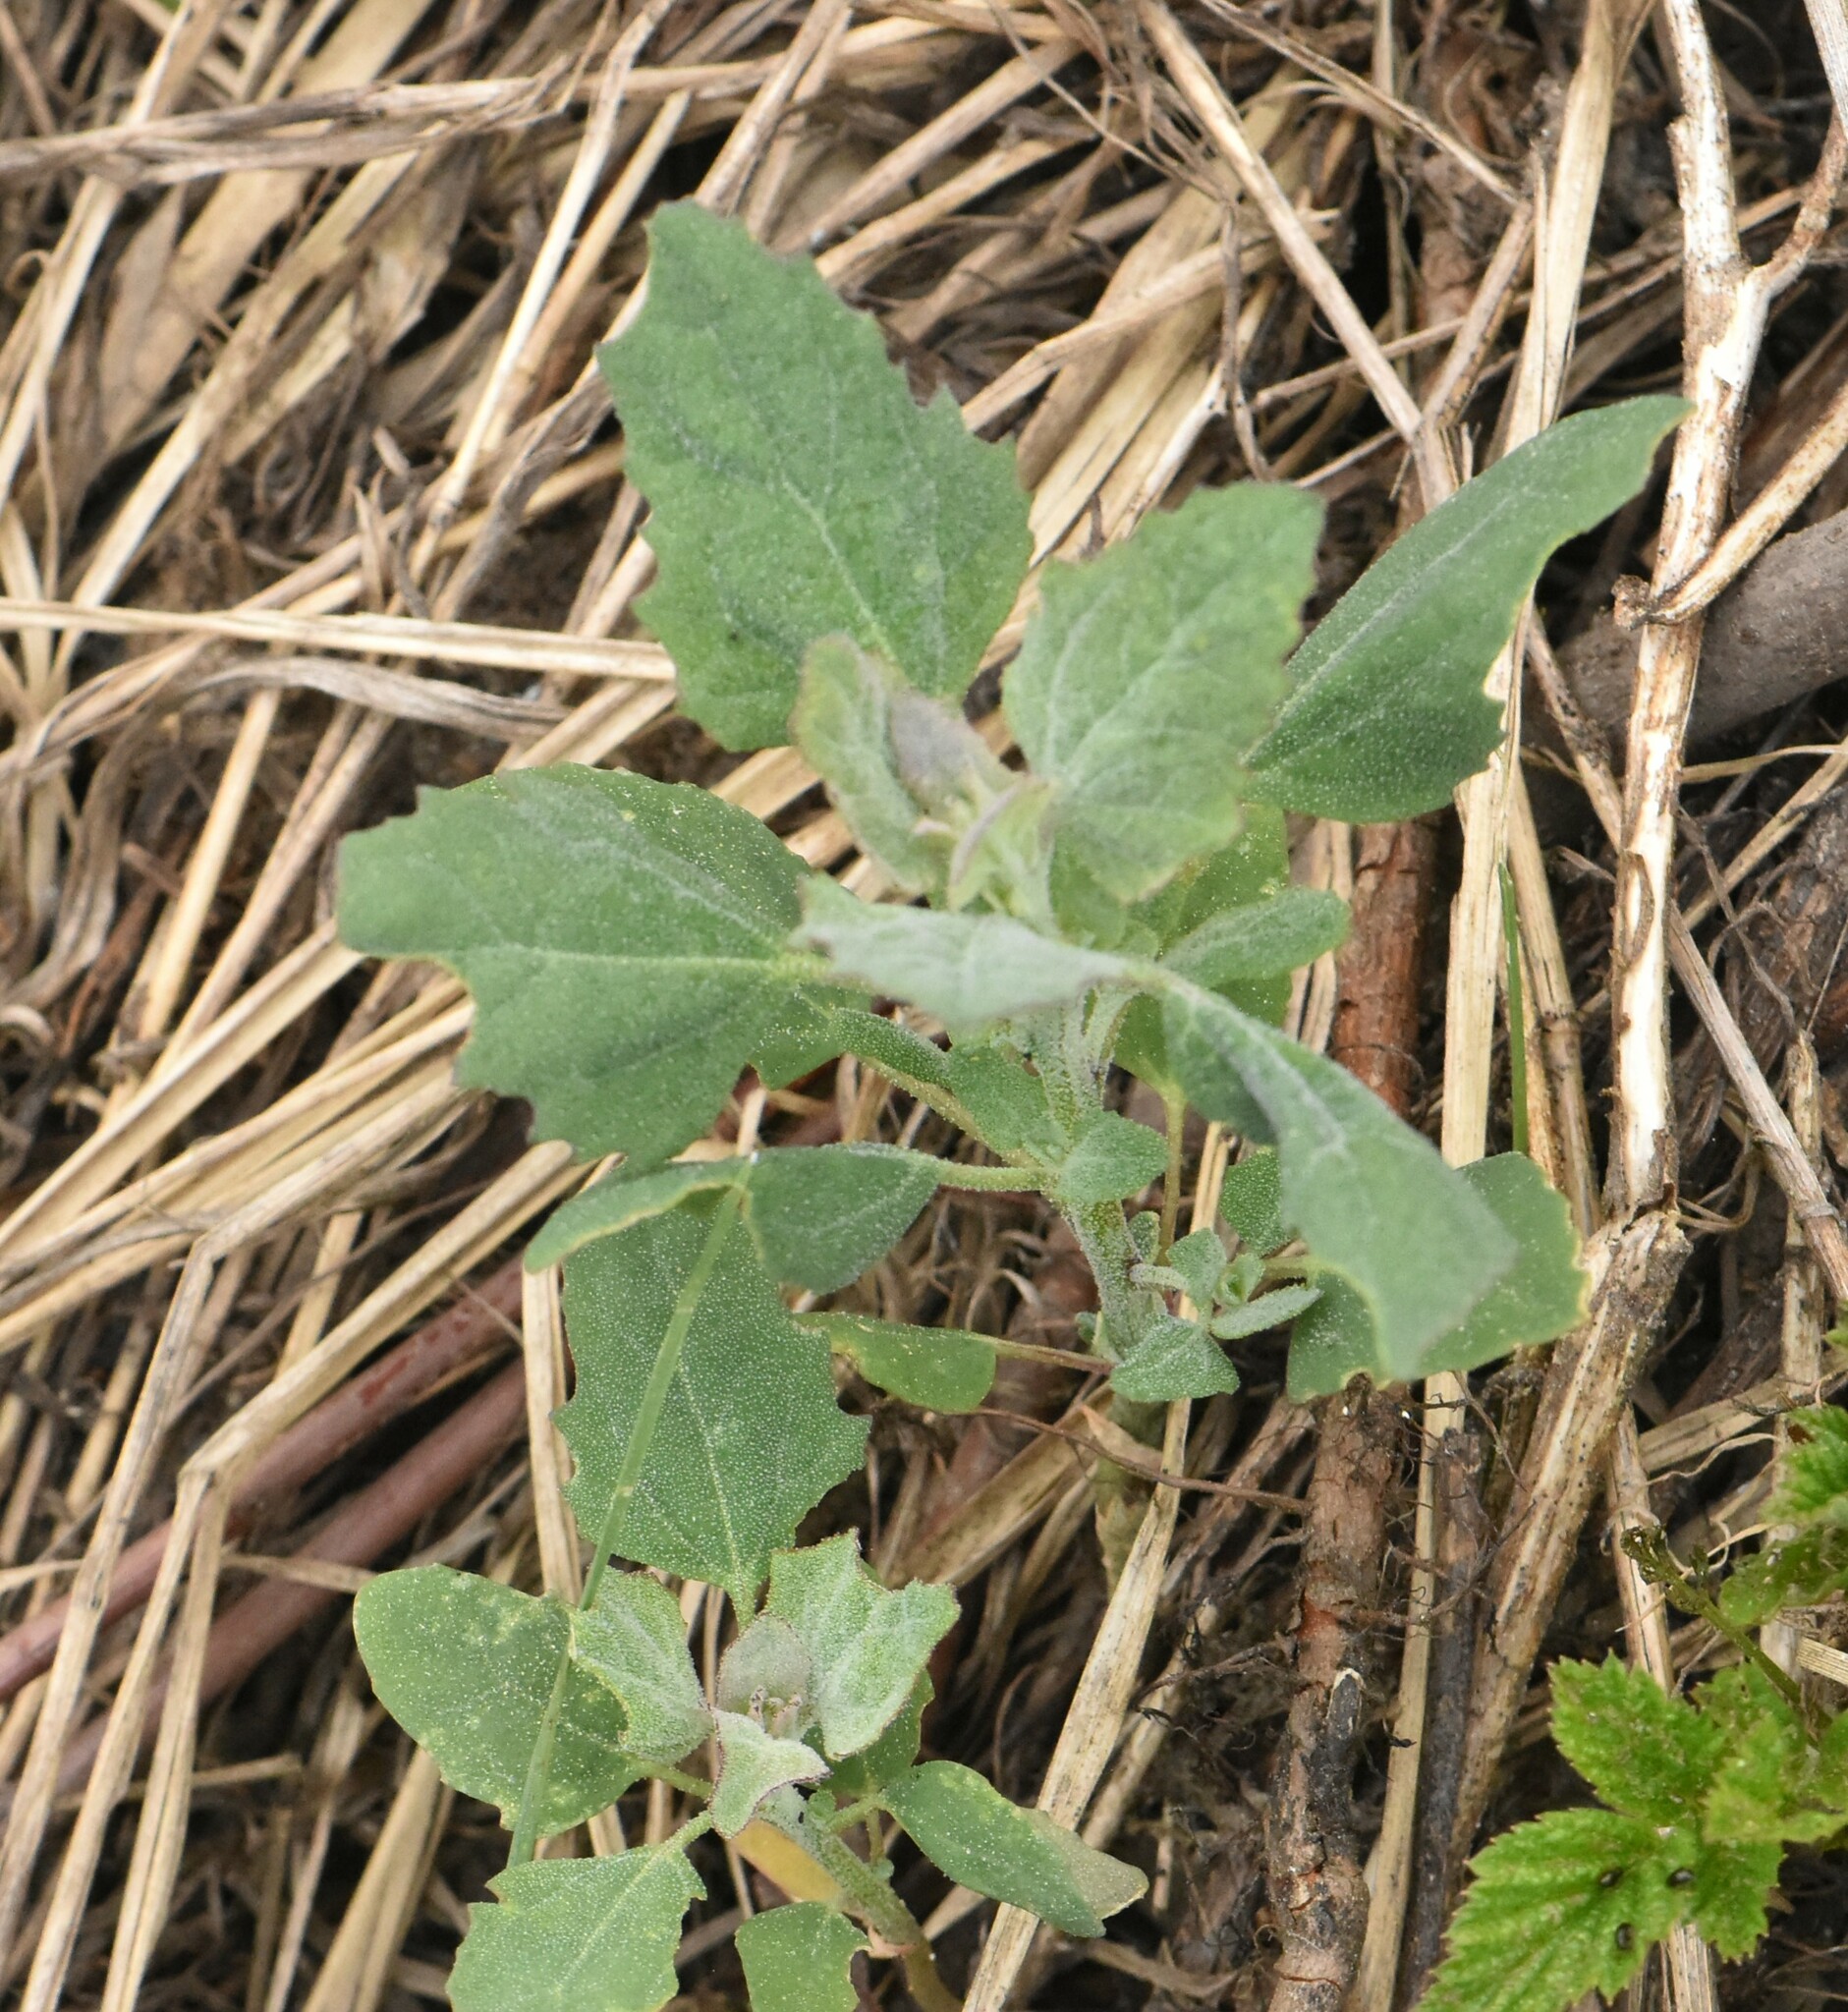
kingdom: Plantae
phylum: Tracheophyta
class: Magnoliopsida
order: Caryophyllales
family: Amaranthaceae
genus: Chenopodium
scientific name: Chenopodium album
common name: Fat-hen
